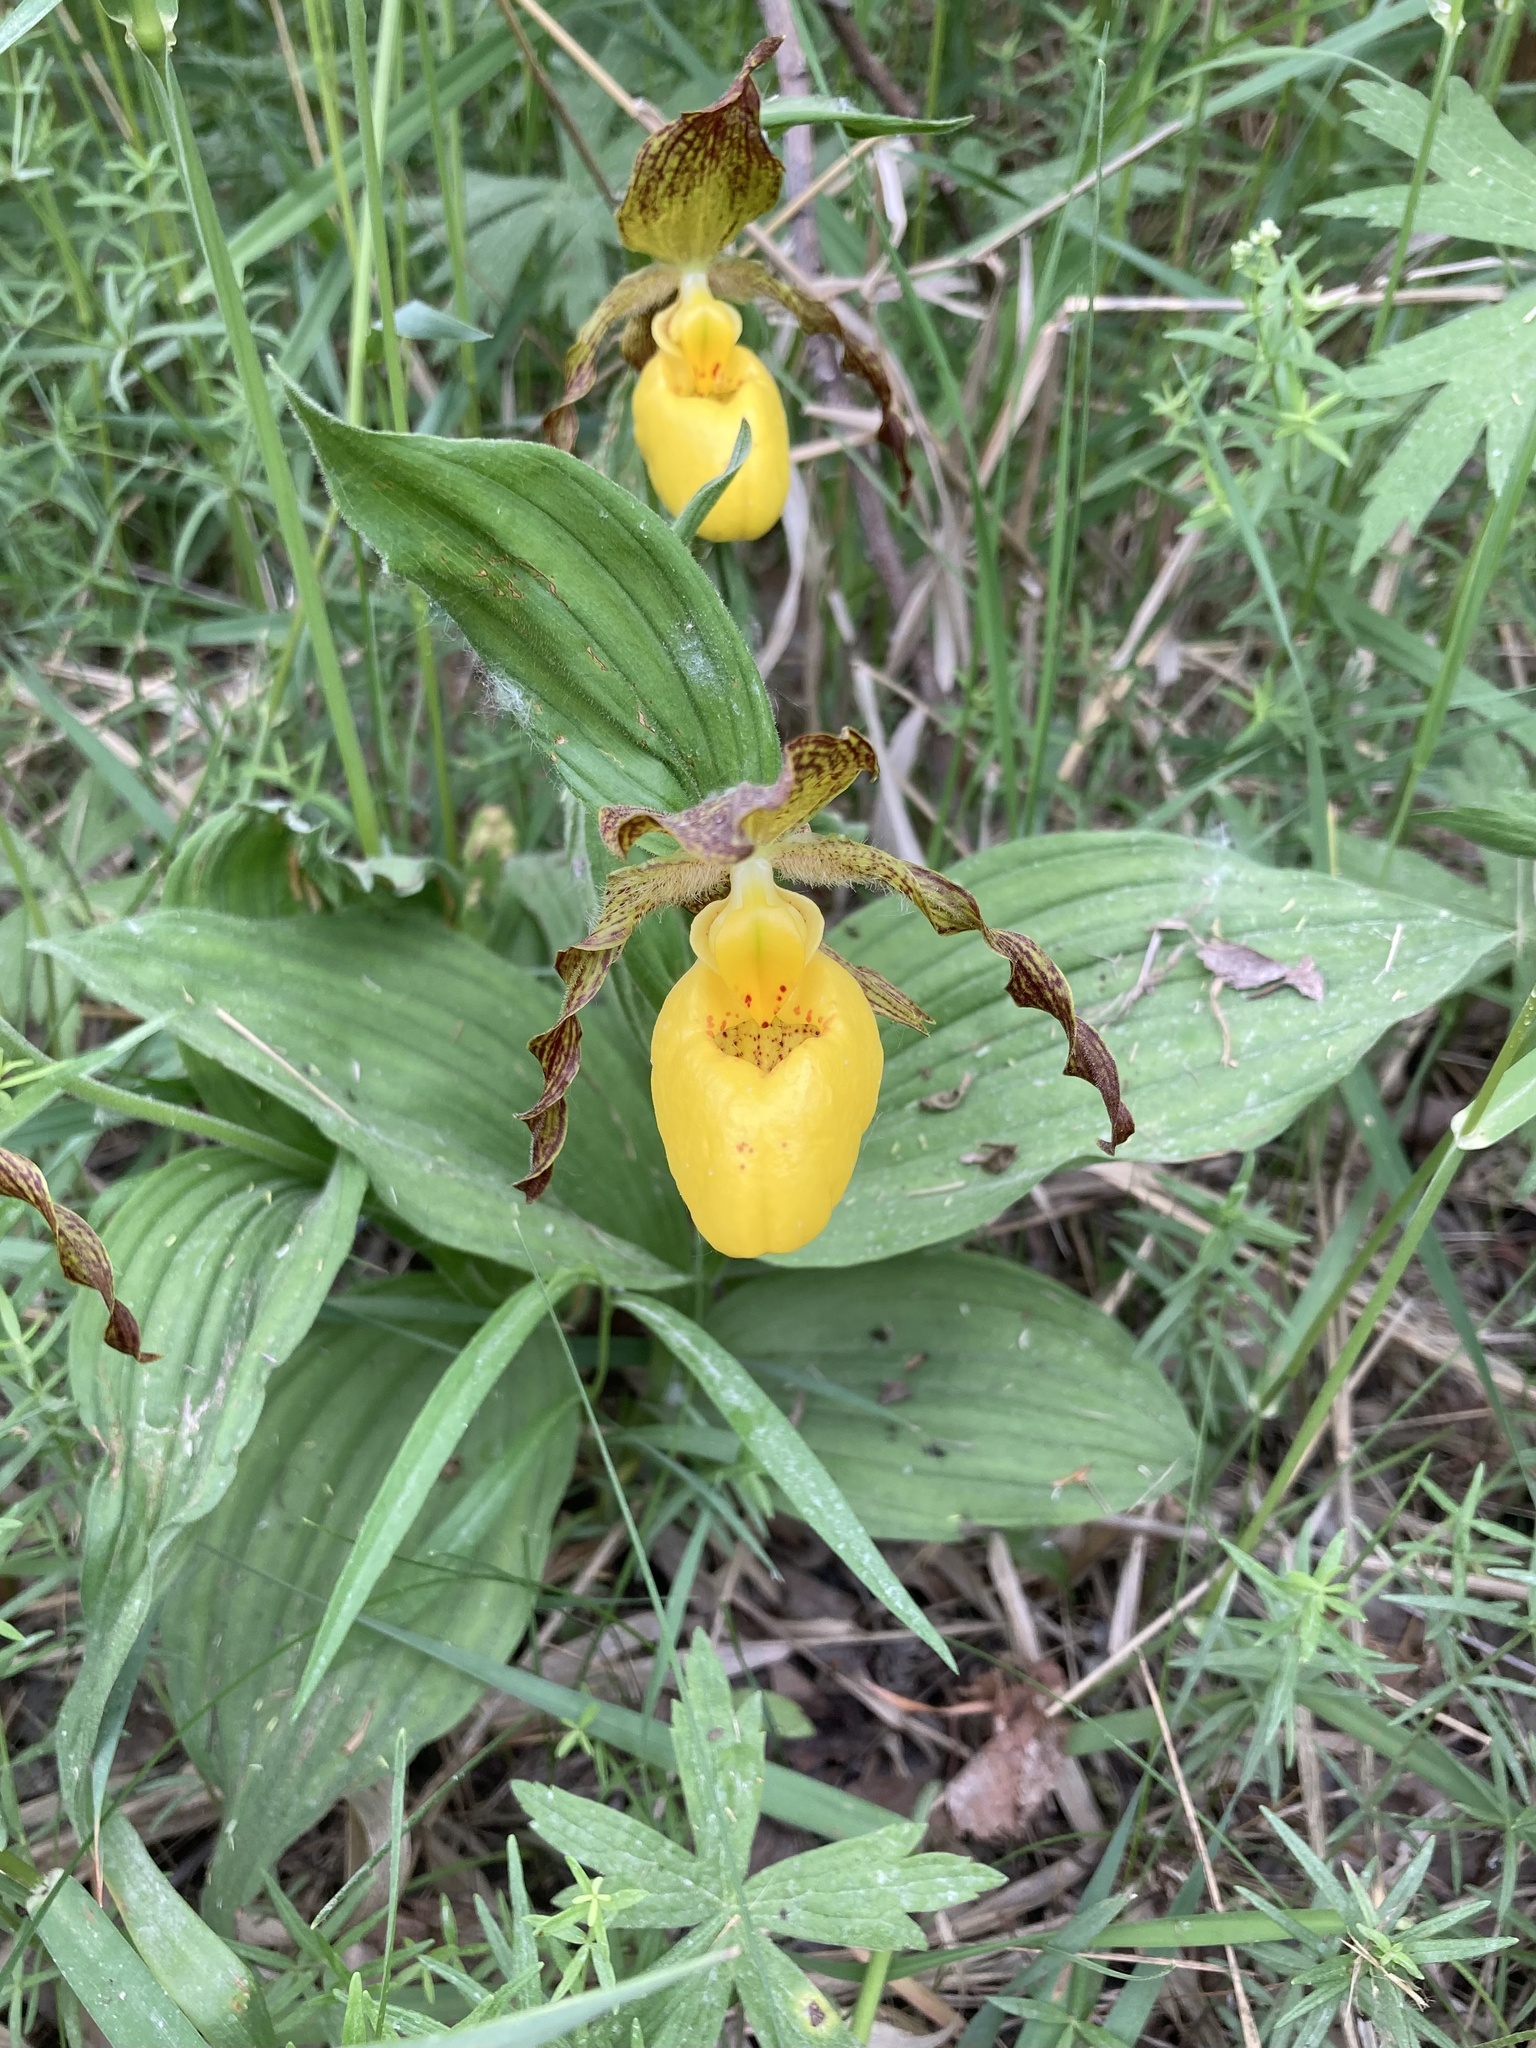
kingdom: Plantae
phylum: Tracheophyta
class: Liliopsida
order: Asparagales
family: Orchidaceae
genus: Cypripedium
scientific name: Cypripedium parviflorum
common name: American yellow lady's-slipper
